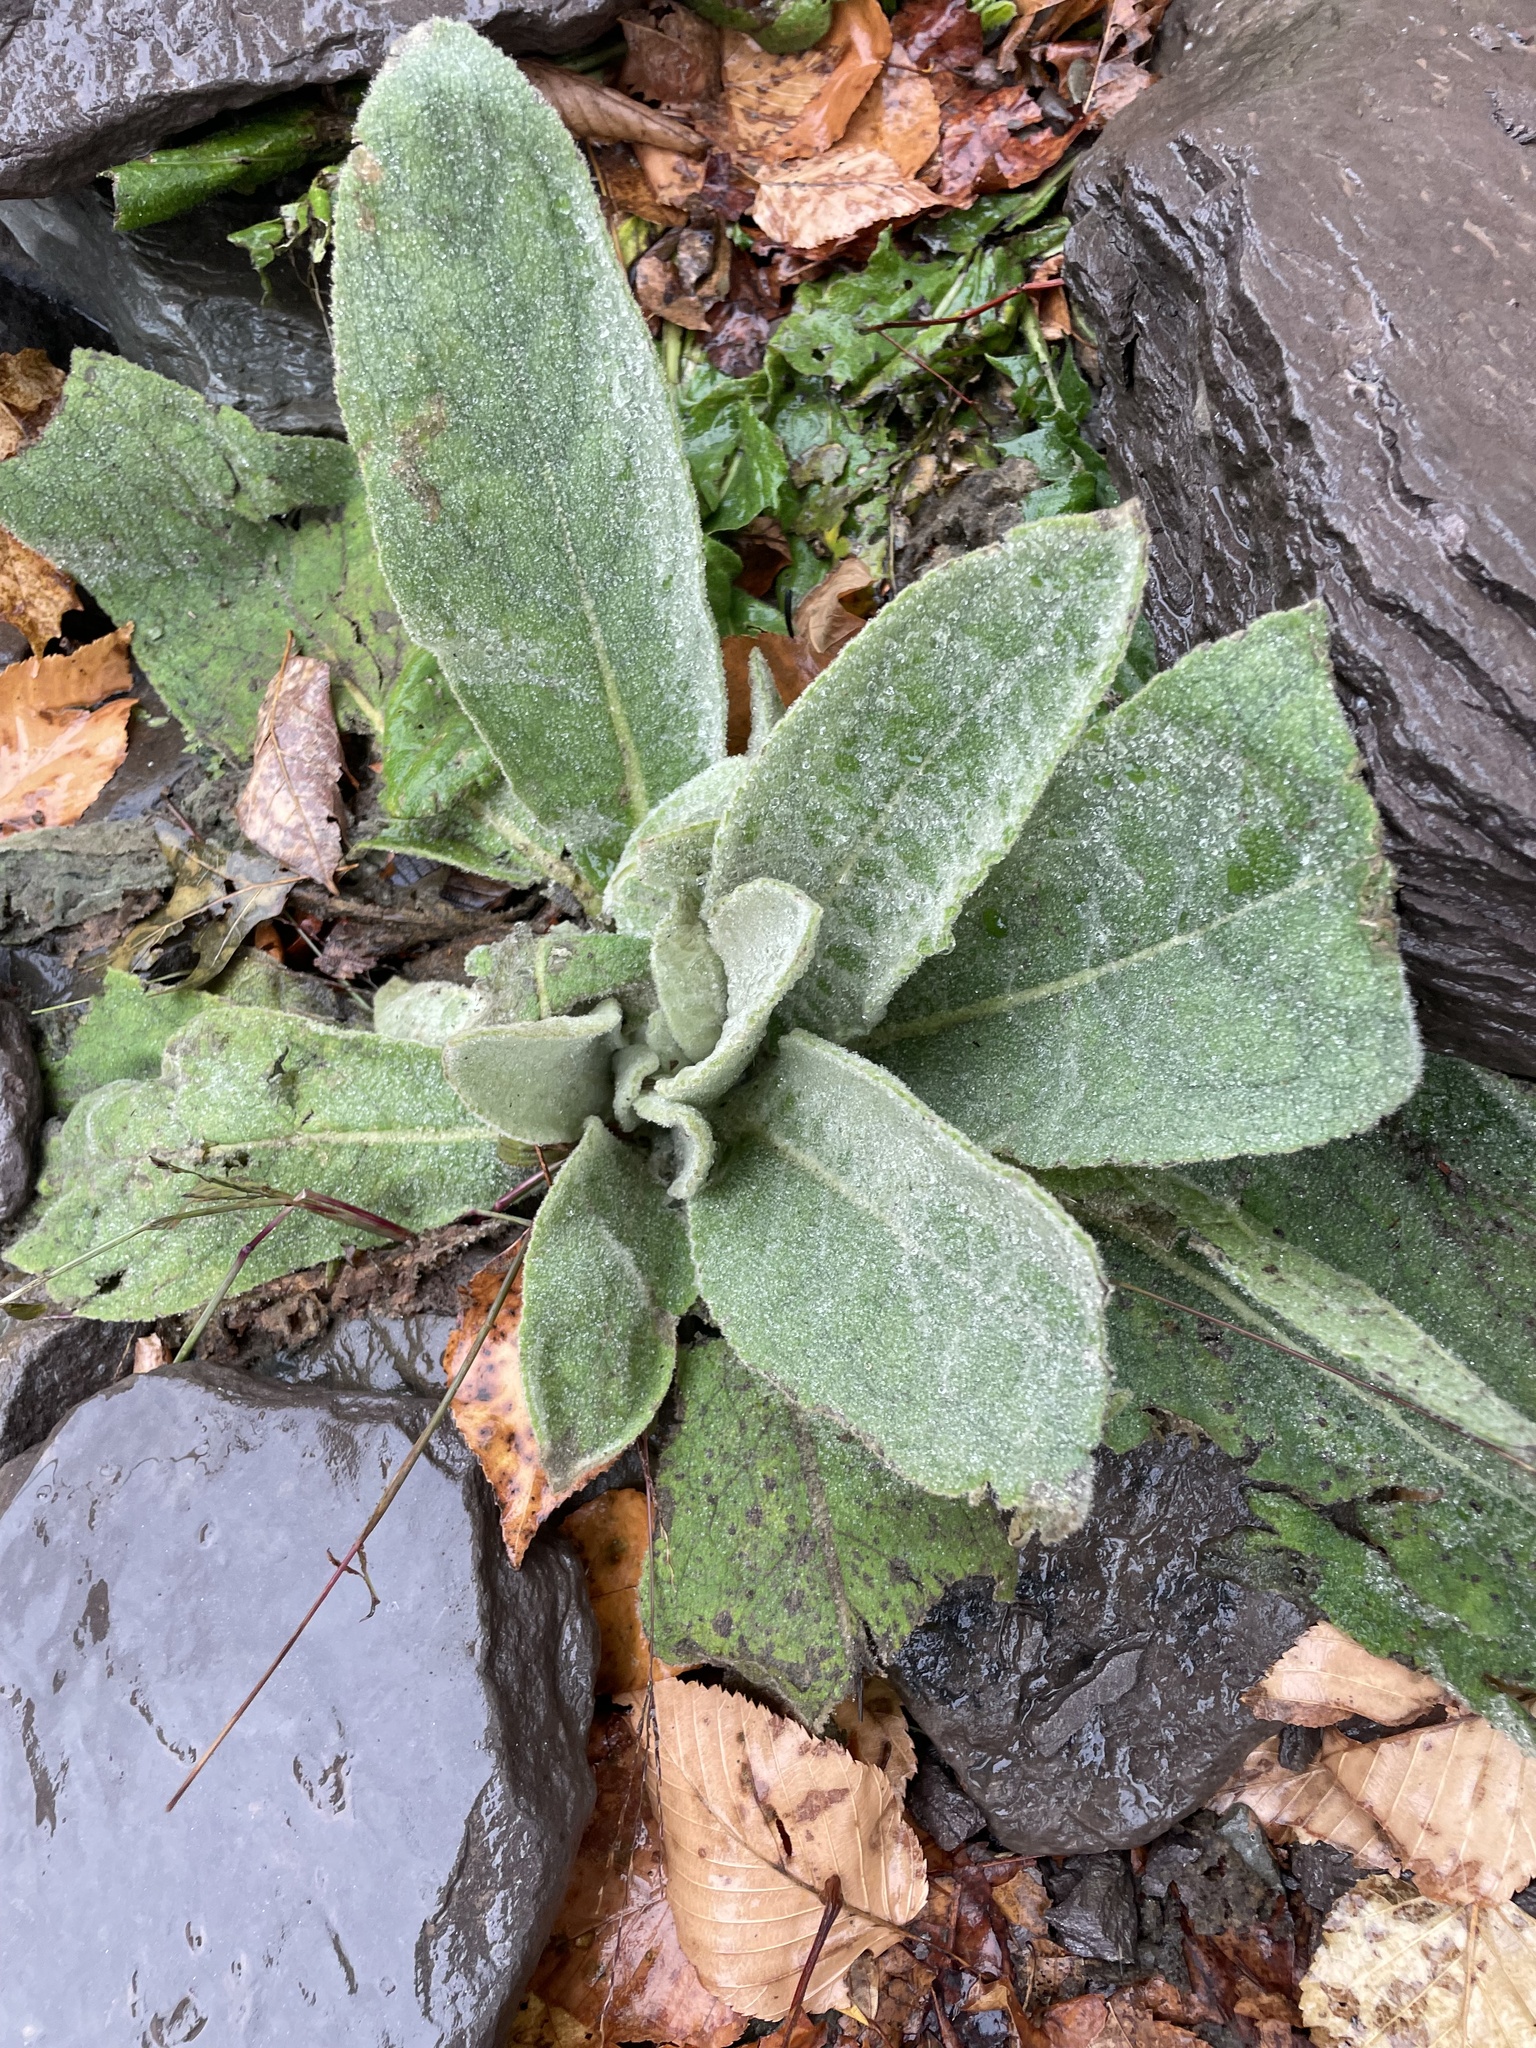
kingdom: Plantae
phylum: Tracheophyta
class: Magnoliopsida
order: Lamiales
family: Scrophulariaceae
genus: Verbascum
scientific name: Verbascum thapsus
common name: Common mullein
